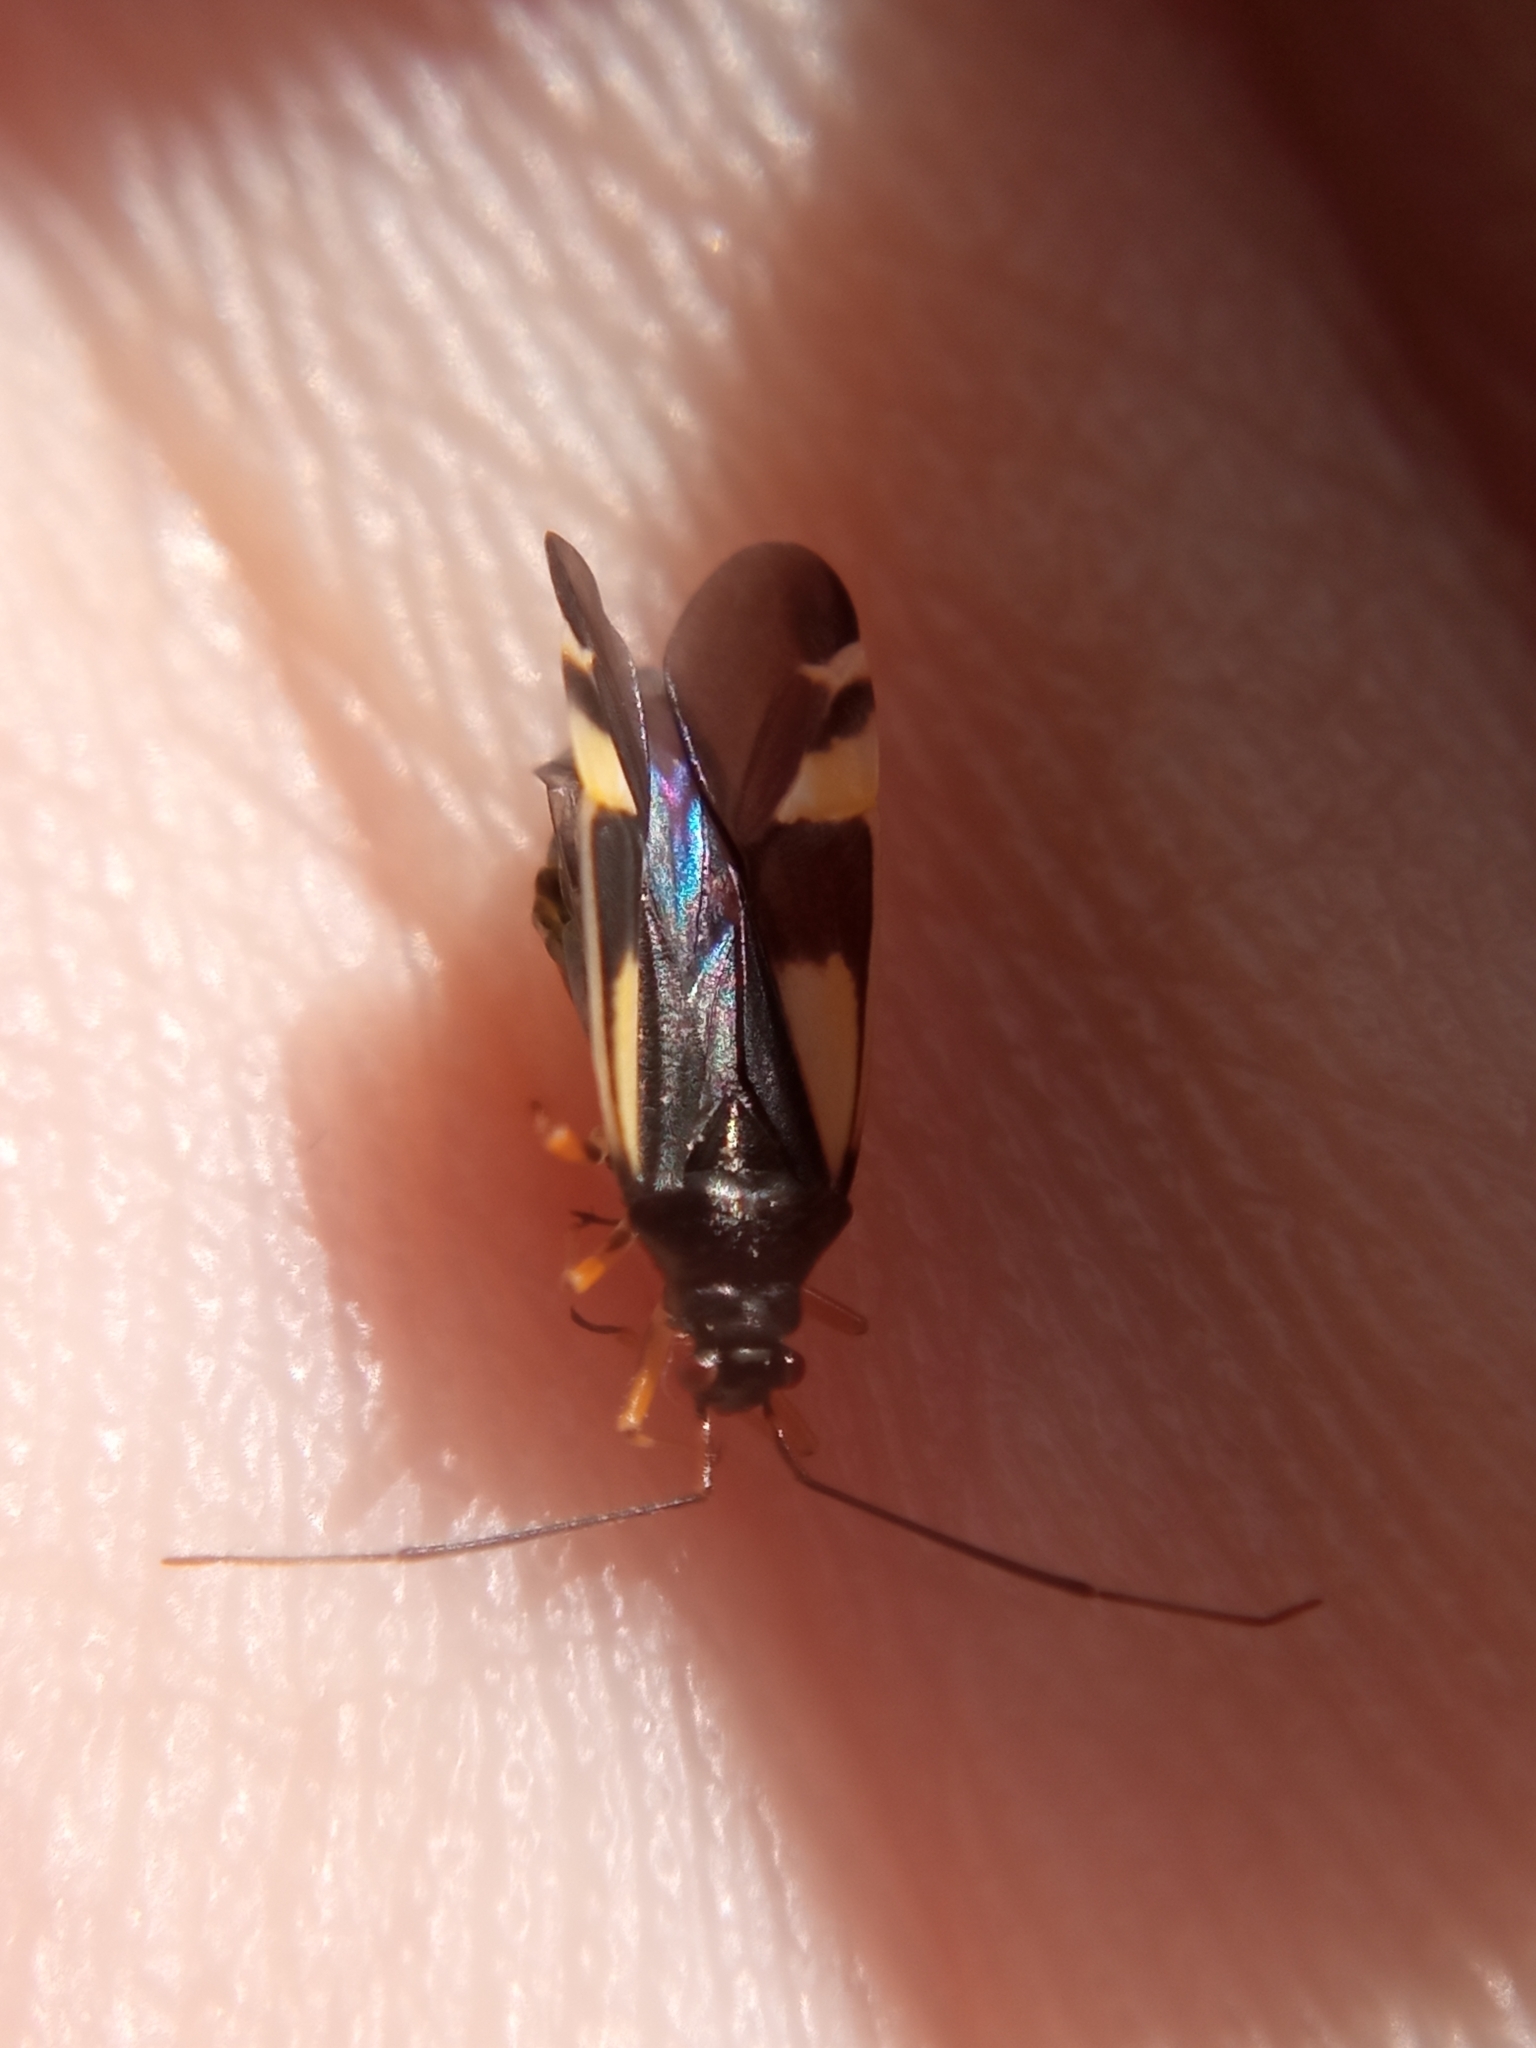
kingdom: Animalia
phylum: Arthropoda
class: Insecta
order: Hemiptera
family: Miridae
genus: Dryophilocoris
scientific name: Dryophilocoris flavoquadrimaculatus
